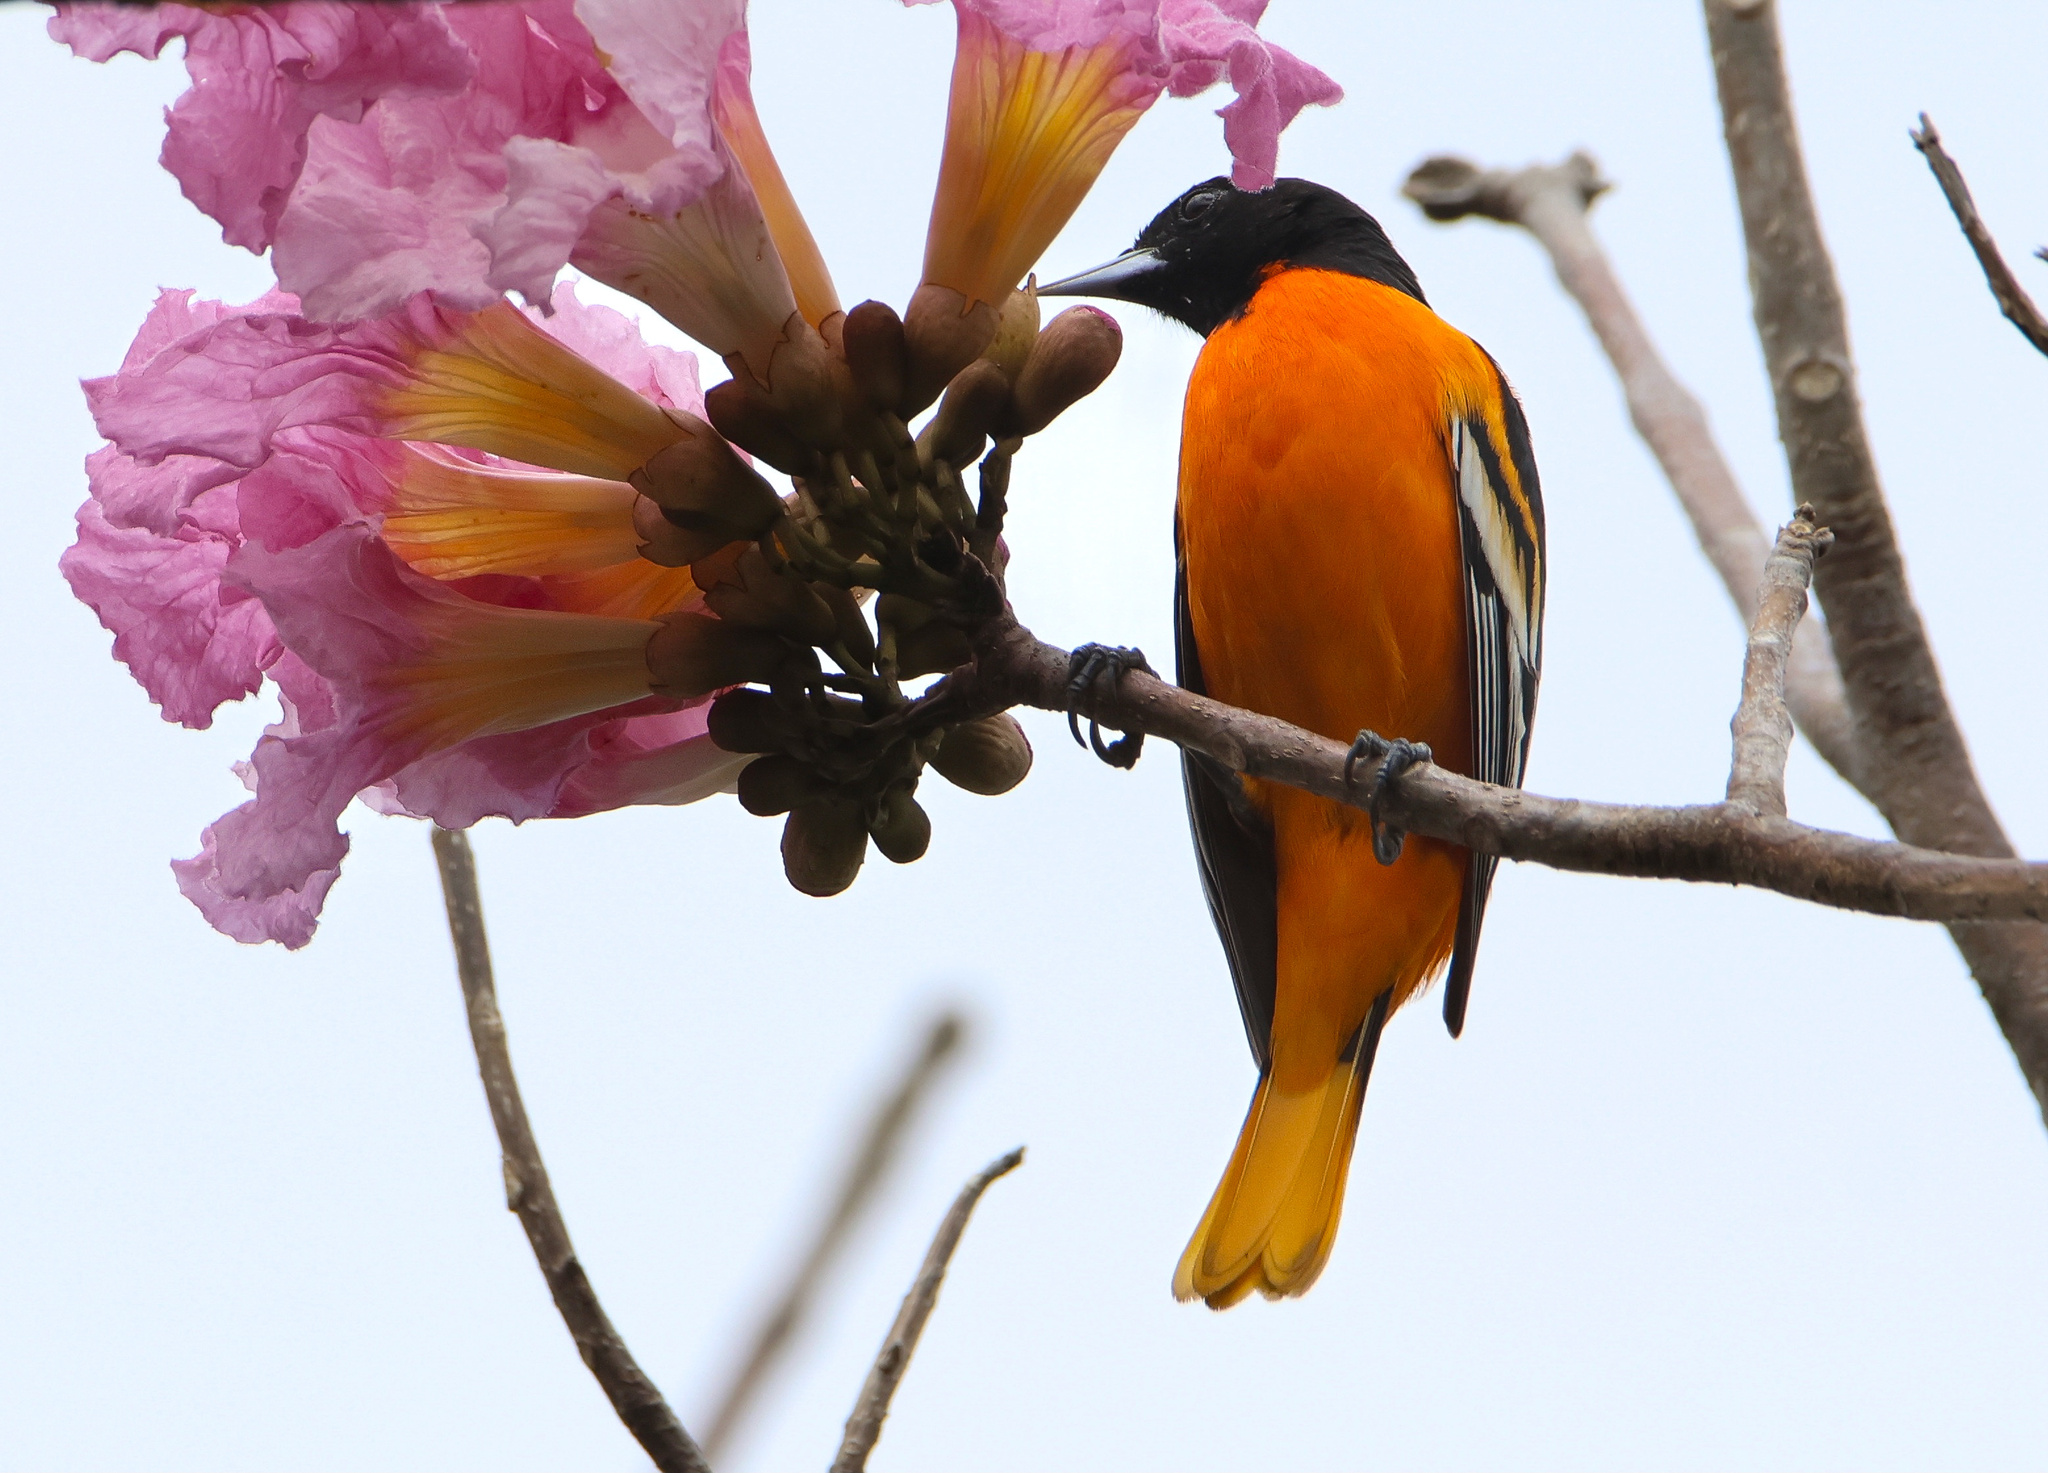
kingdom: Animalia
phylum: Chordata
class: Aves
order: Passeriformes
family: Icteridae
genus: Icterus
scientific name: Icterus galbula
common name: Baltimore oriole
